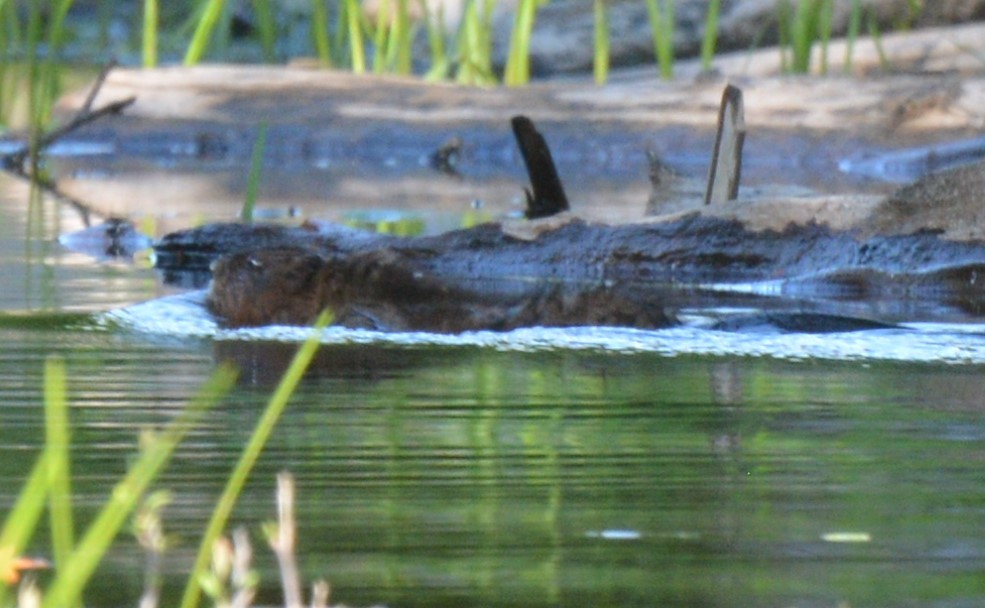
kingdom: Animalia
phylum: Chordata
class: Mammalia
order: Rodentia
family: Cricetidae
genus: Ondatra
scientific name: Ondatra zibethicus
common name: Muskrat
